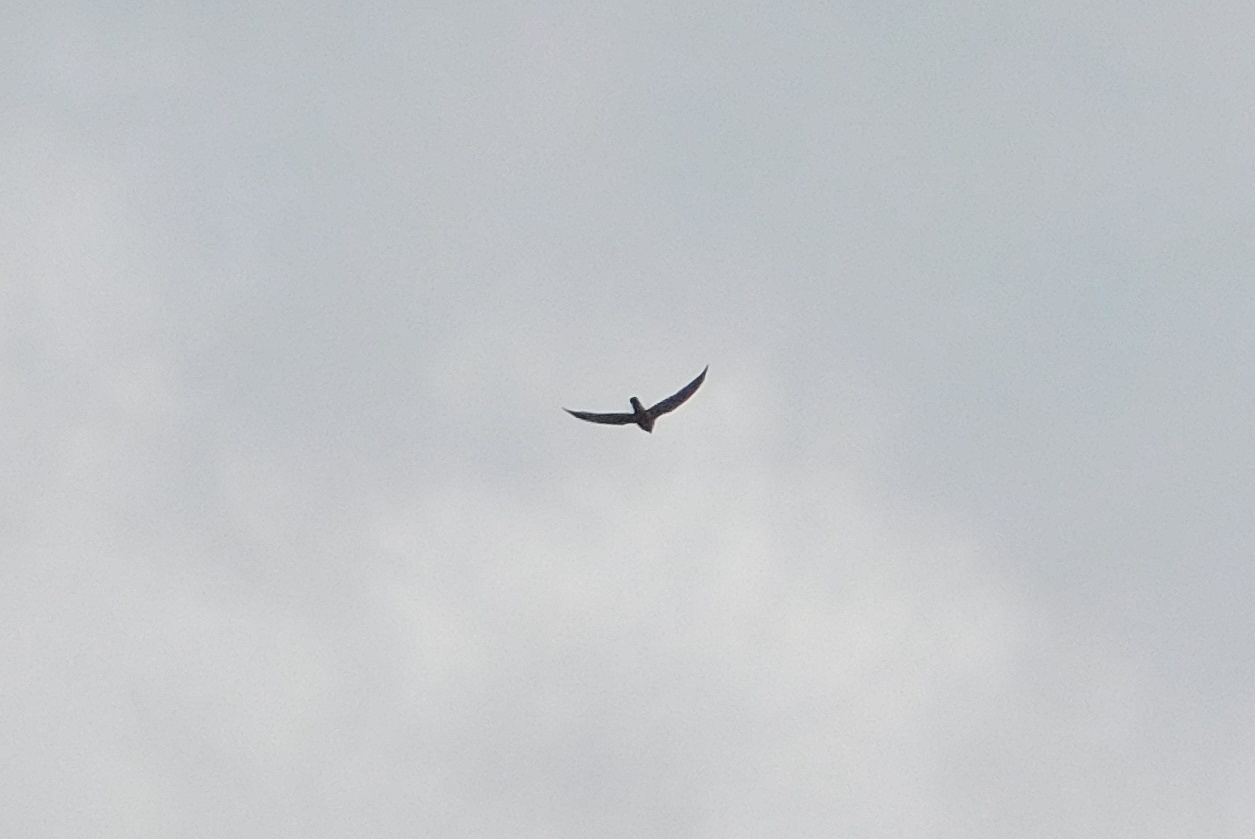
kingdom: Animalia
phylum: Chordata
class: Aves
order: Falconiformes
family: Falconidae
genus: Falco
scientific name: Falco tinnunculus
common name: Common kestrel
